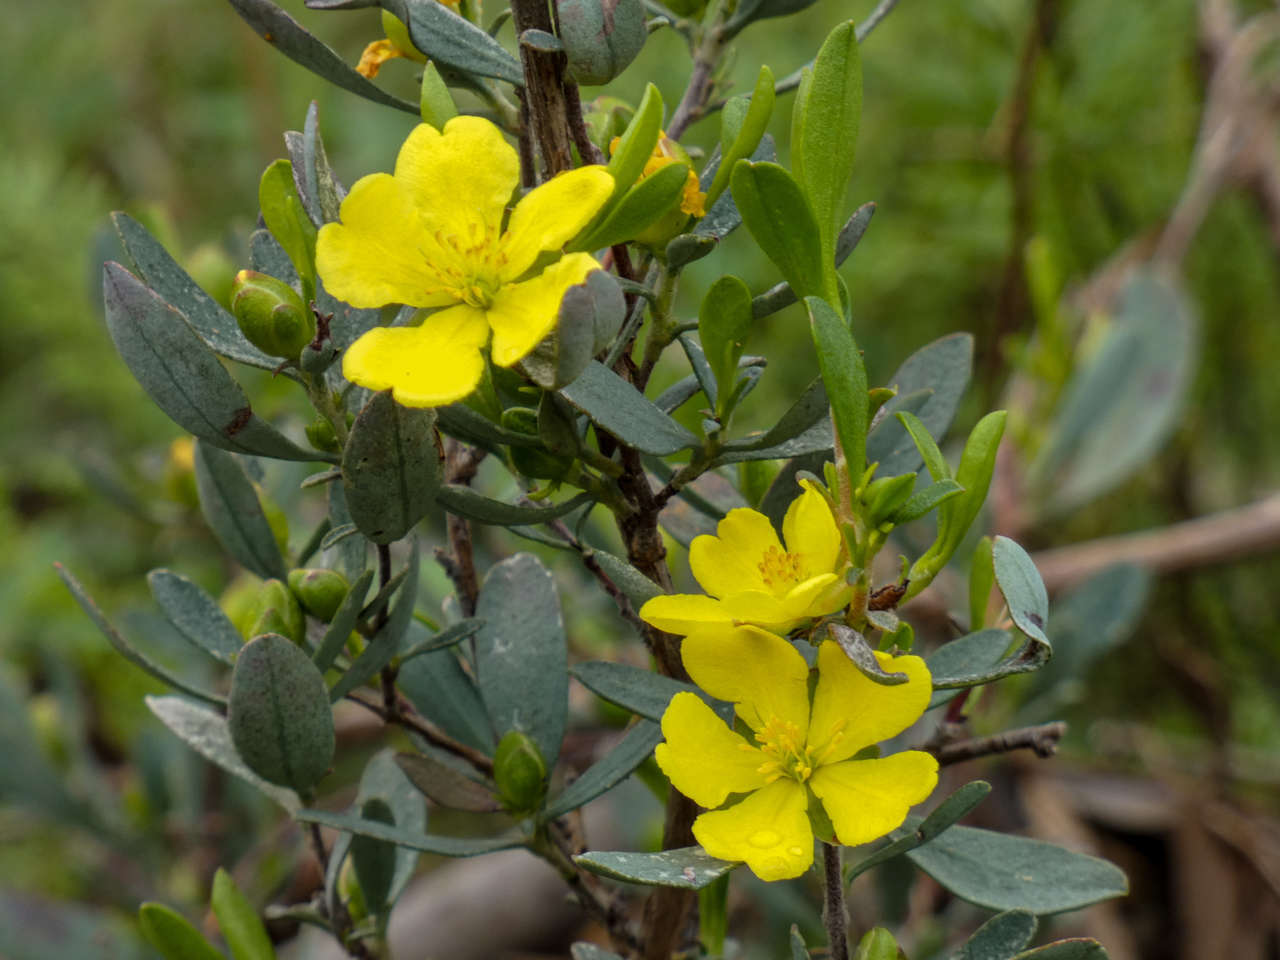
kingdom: Plantae
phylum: Tracheophyta
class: Magnoliopsida
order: Dilleniales
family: Dilleniaceae
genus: Hibbertia
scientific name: Hibbertia obtusifolia
